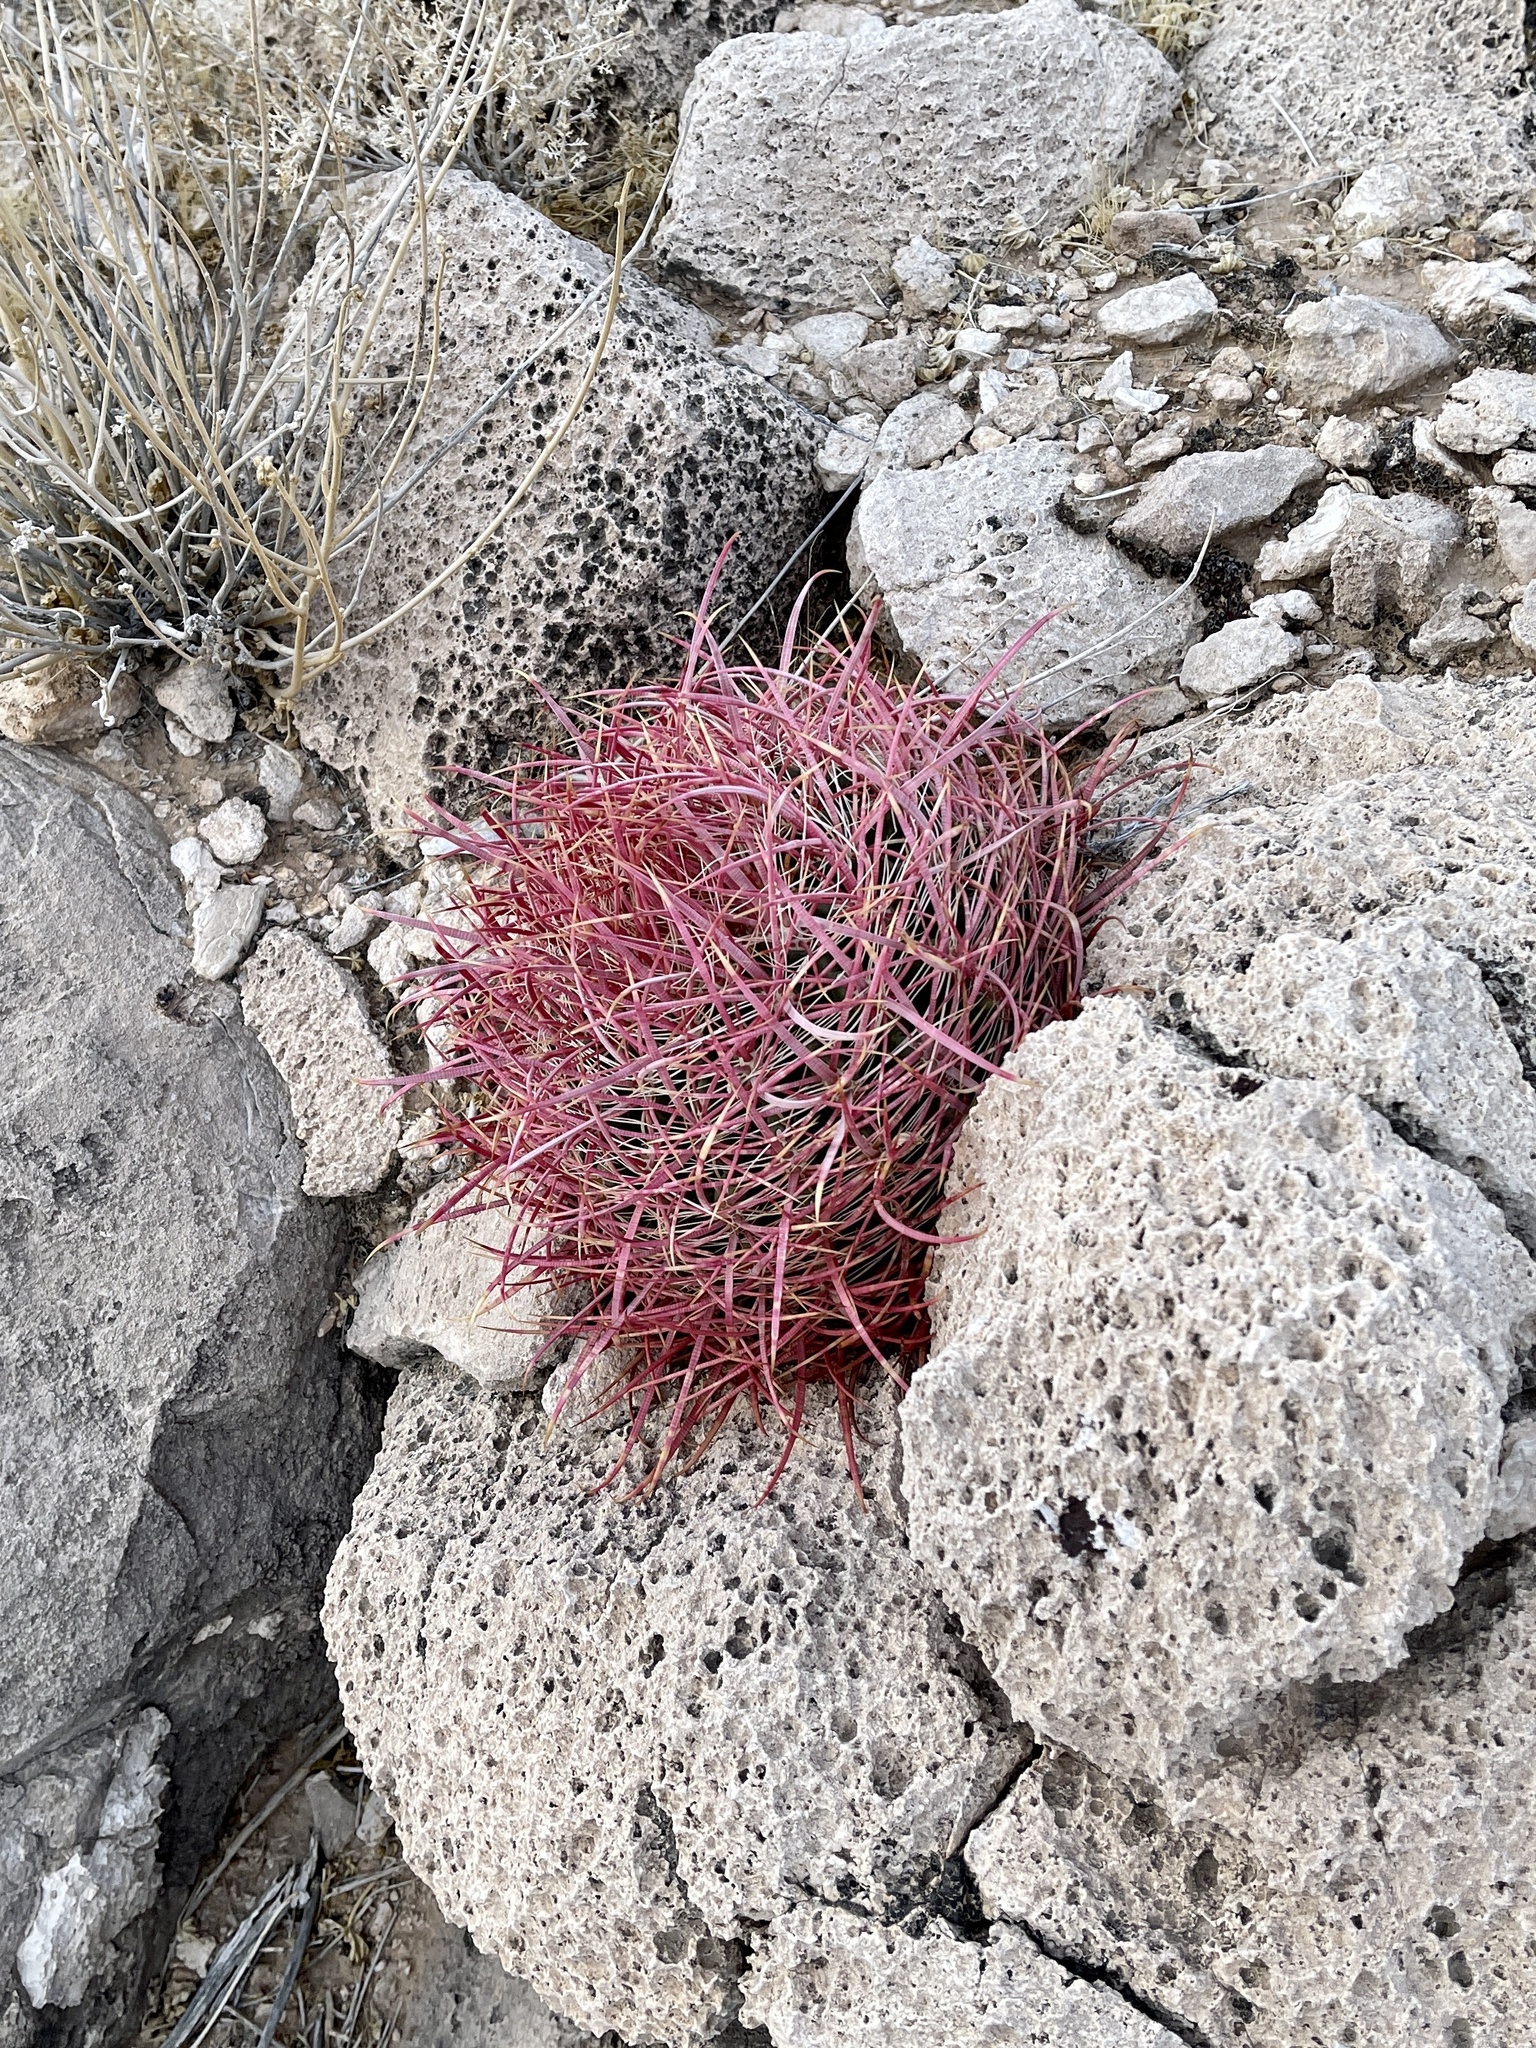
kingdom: Plantae
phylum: Tracheophyta
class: Magnoliopsida
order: Caryophyllales
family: Cactaceae
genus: Ferocactus
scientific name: Ferocactus cylindraceus
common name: California barrel cactus
